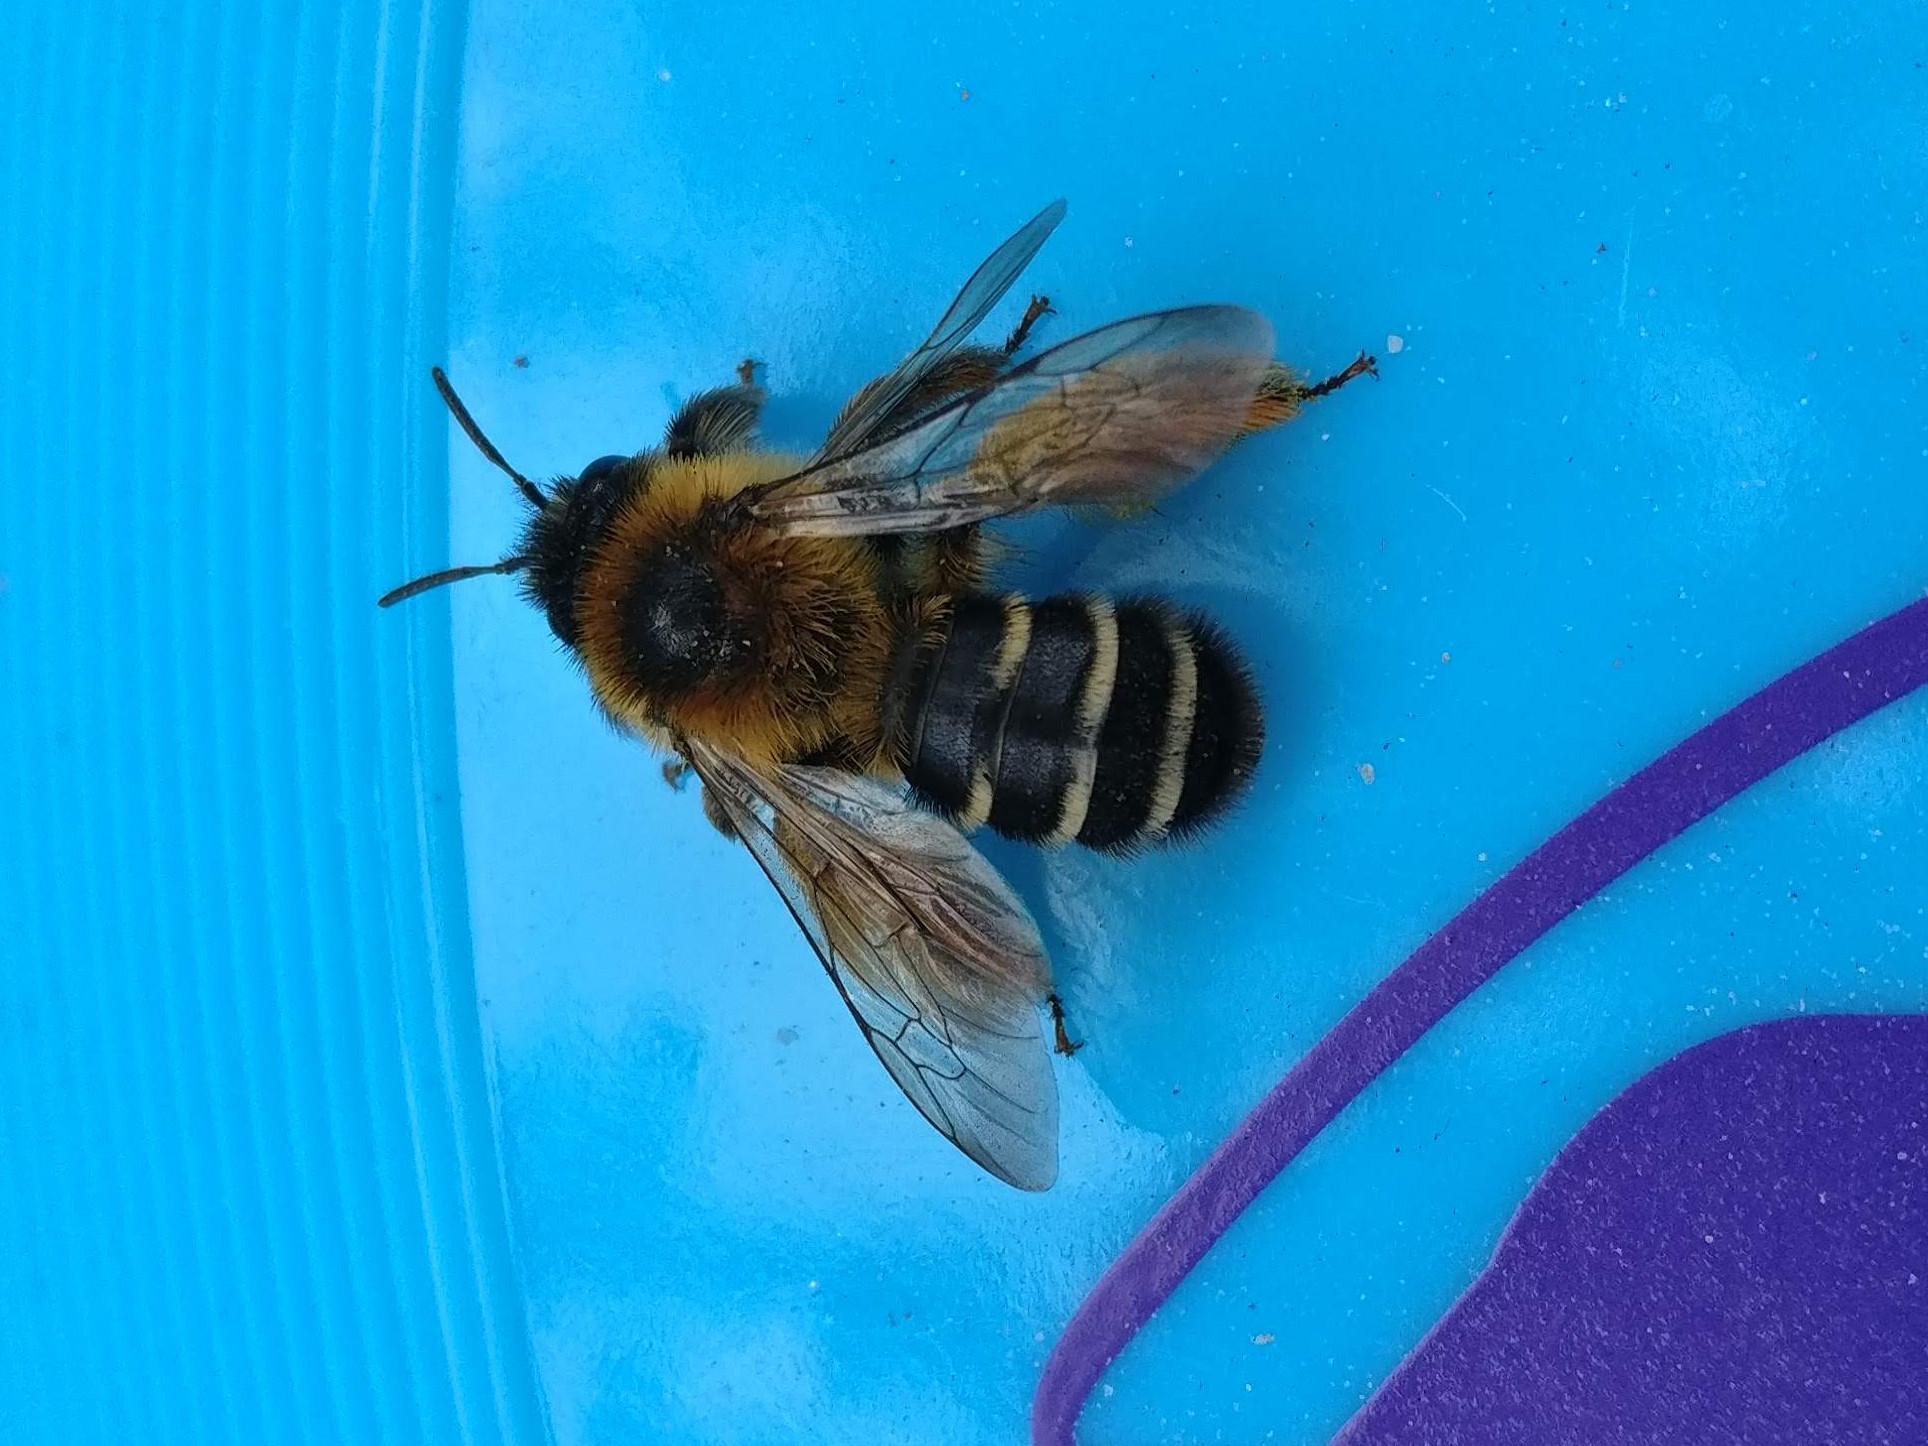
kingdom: Animalia
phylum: Arthropoda
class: Insecta
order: Hymenoptera
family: Melittidae
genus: Dasypoda
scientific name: Dasypoda hirtipes
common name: Pantaloon bee
